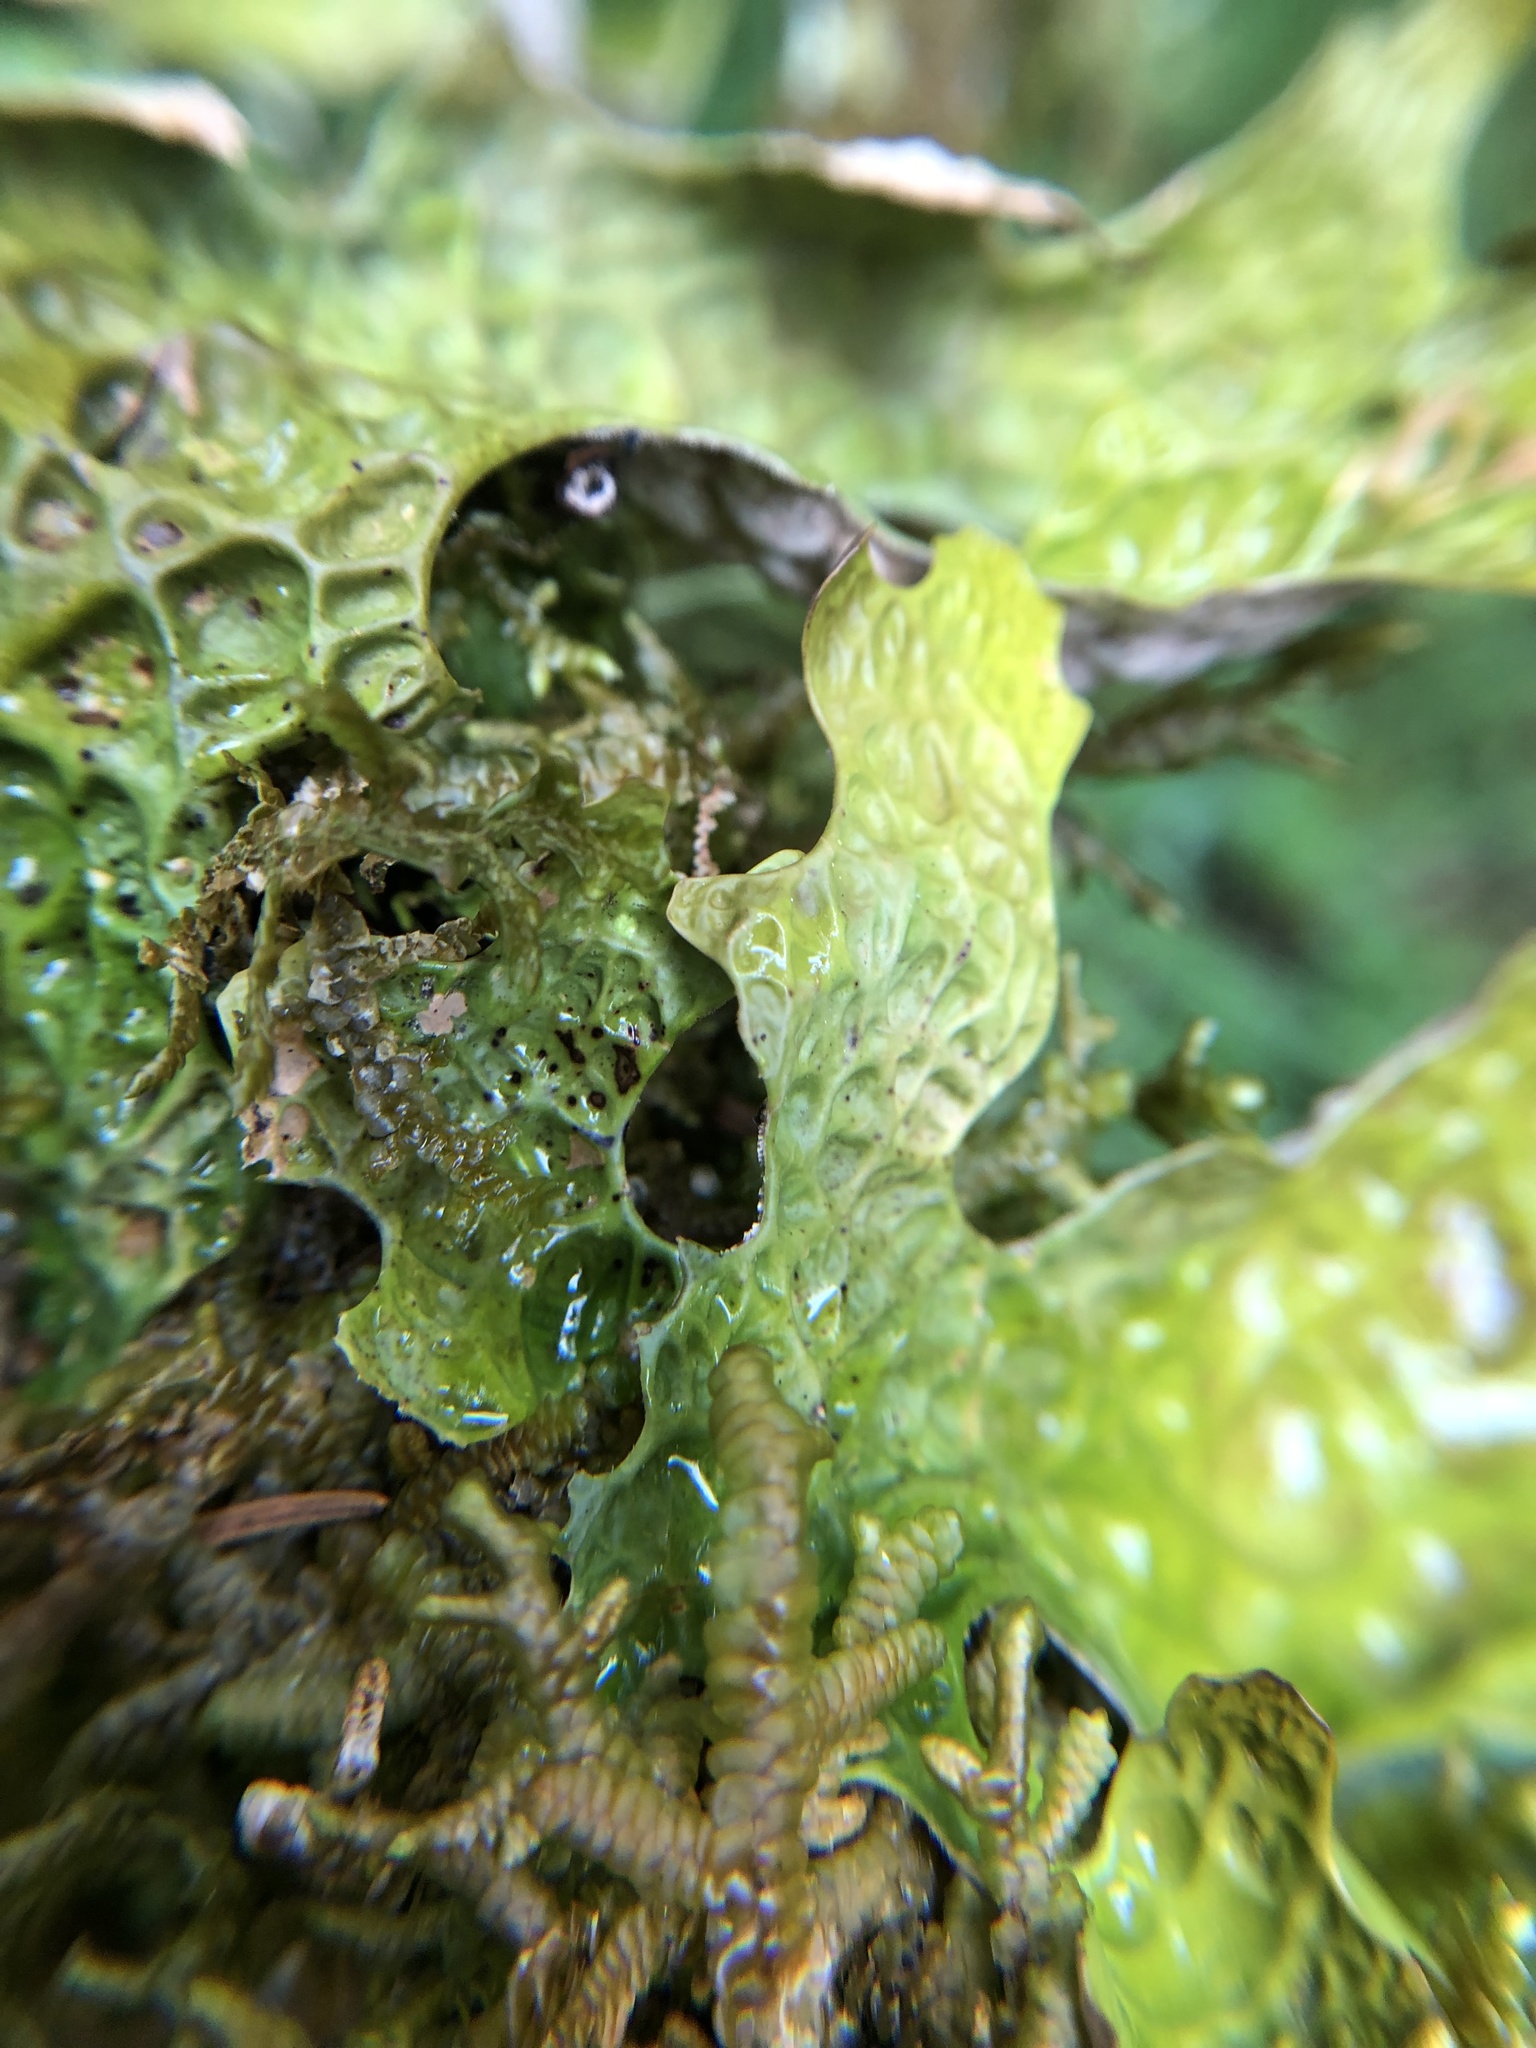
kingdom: Fungi
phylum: Ascomycota
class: Lecanoromycetes
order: Peltigerales
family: Lobariaceae
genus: Lobaria
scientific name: Lobaria pulmonaria
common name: Lungwort
